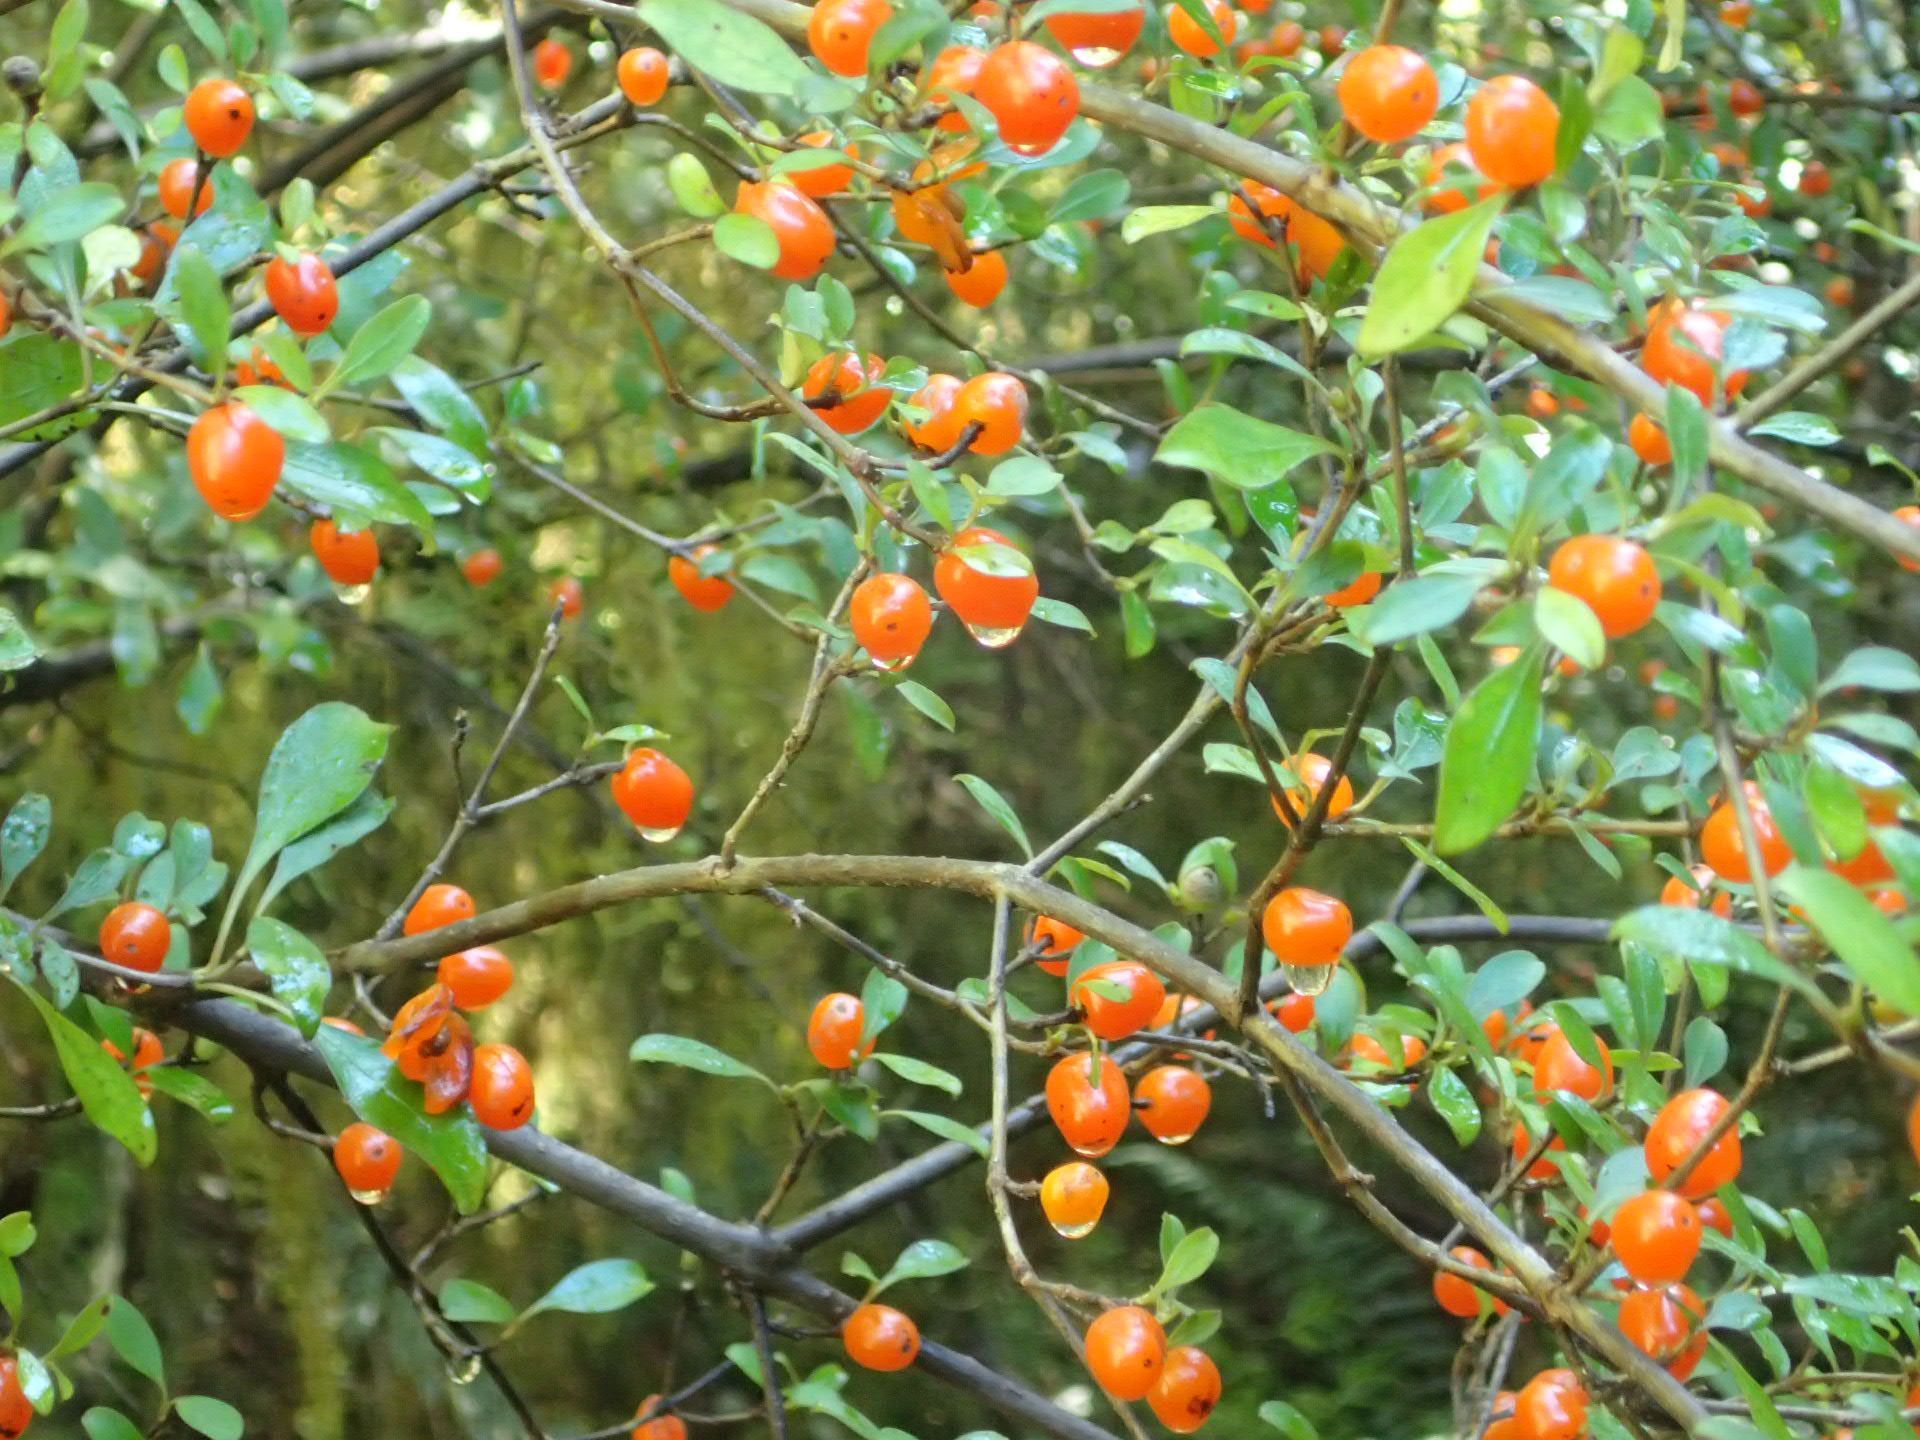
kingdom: Plantae
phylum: Tracheophyta
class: Magnoliopsida
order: Gentianales
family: Rubiaceae
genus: Coprosma
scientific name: Coprosma foetidissima
